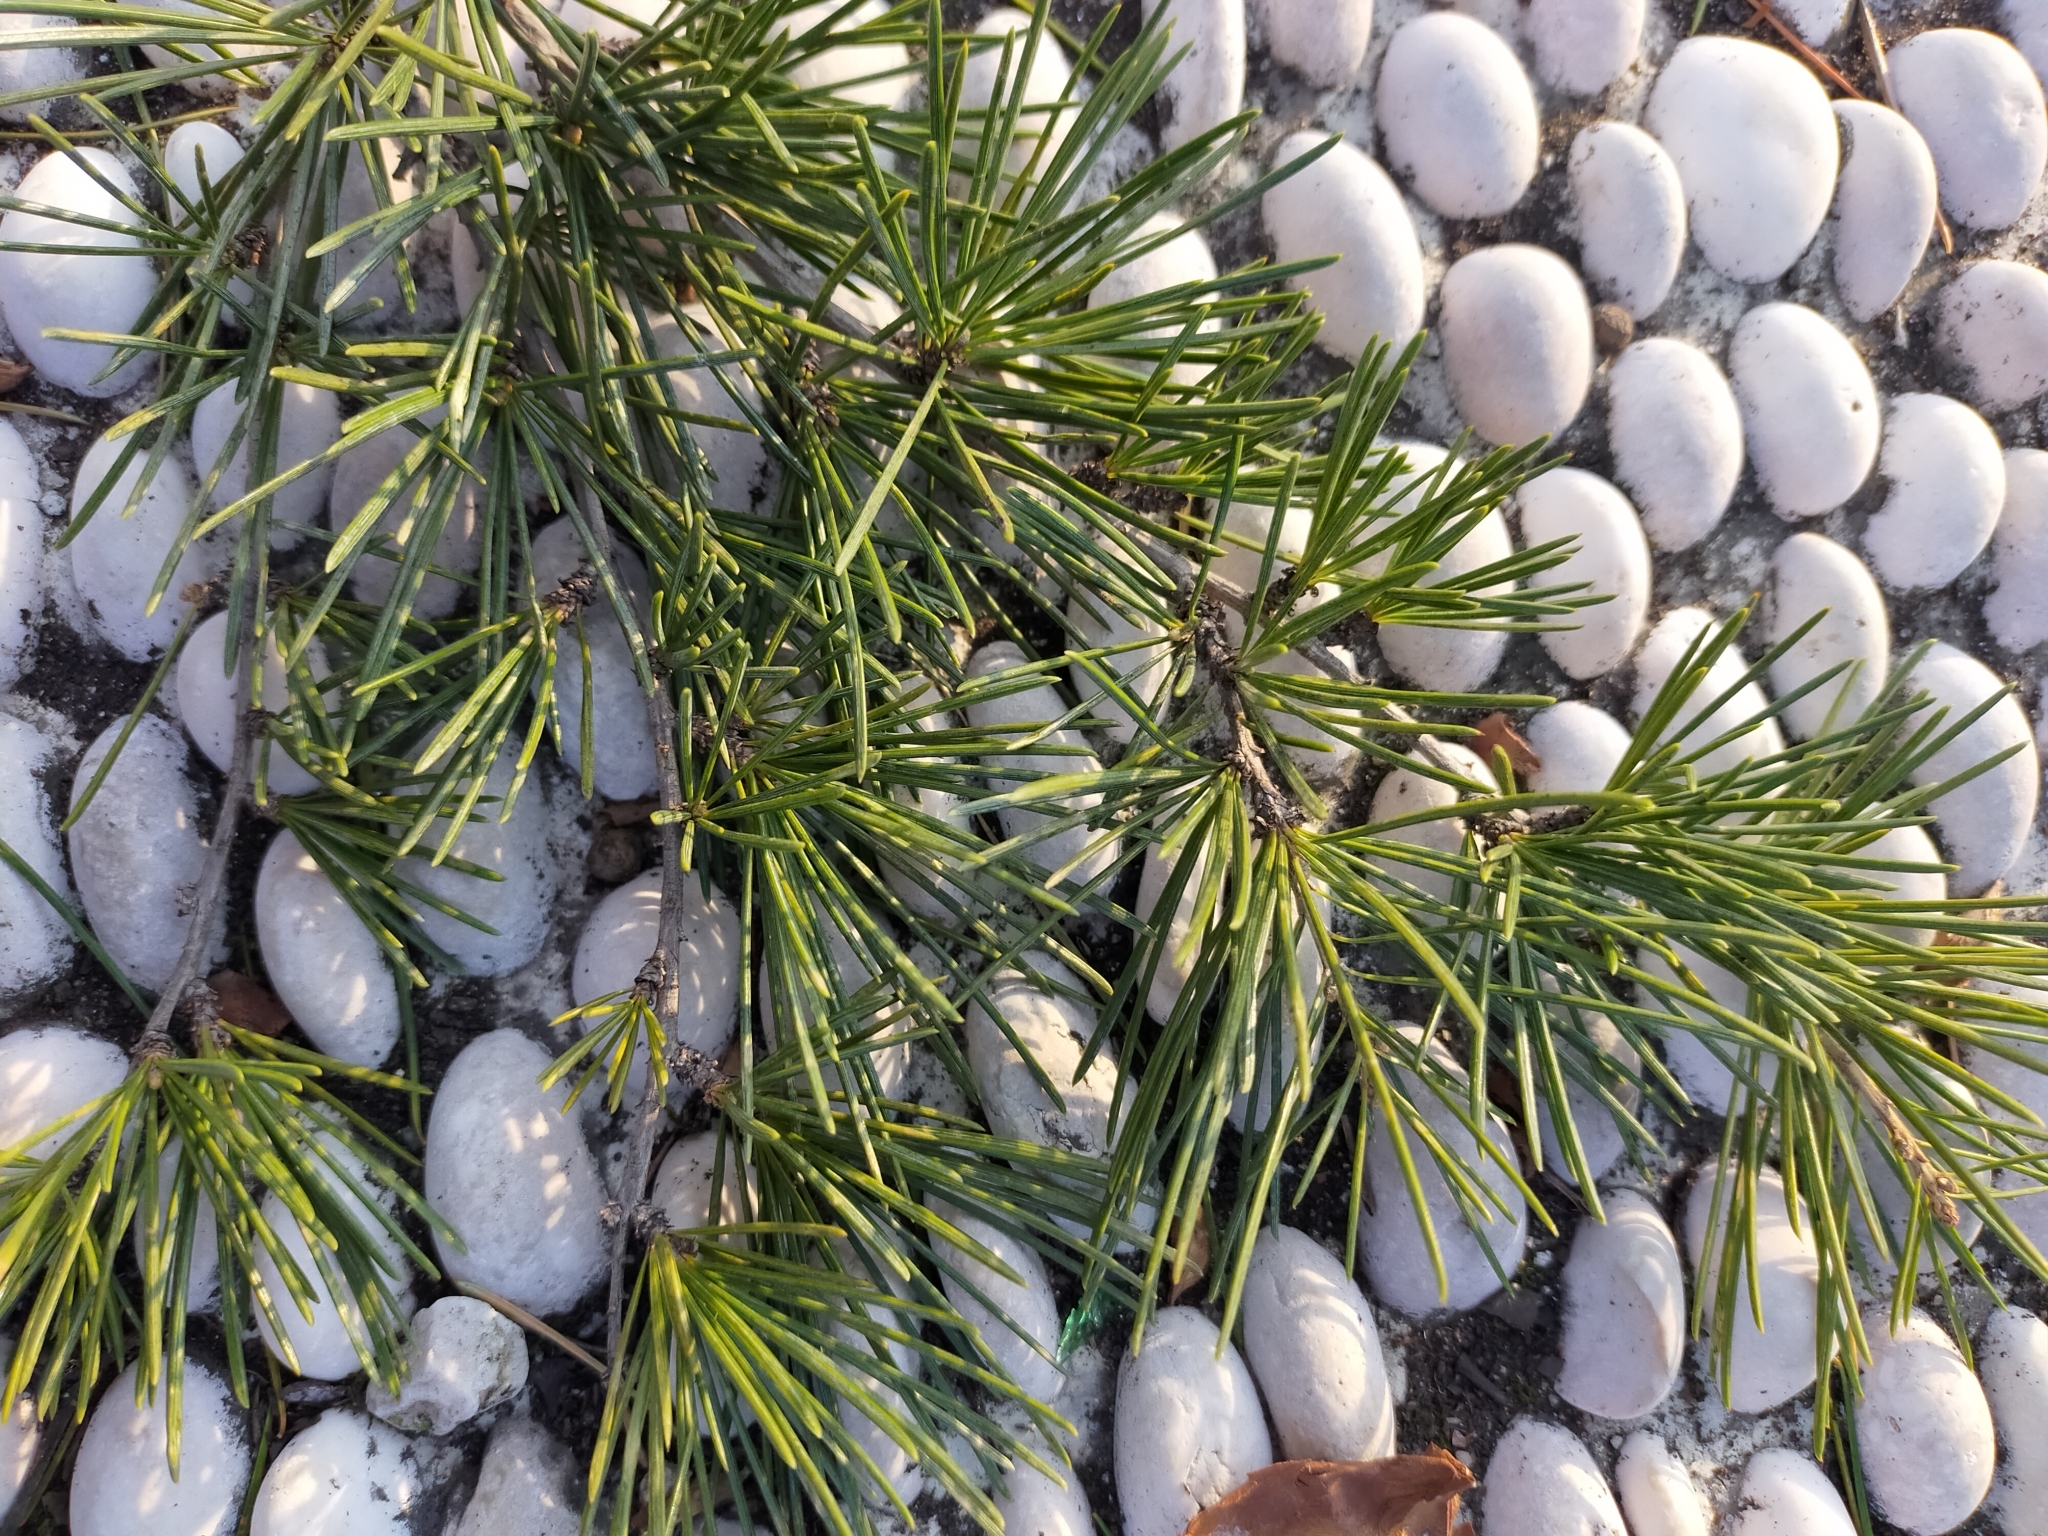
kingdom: Plantae
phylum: Tracheophyta
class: Pinopsida
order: Pinales
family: Pinaceae
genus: Cedrus
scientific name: Cedrus
